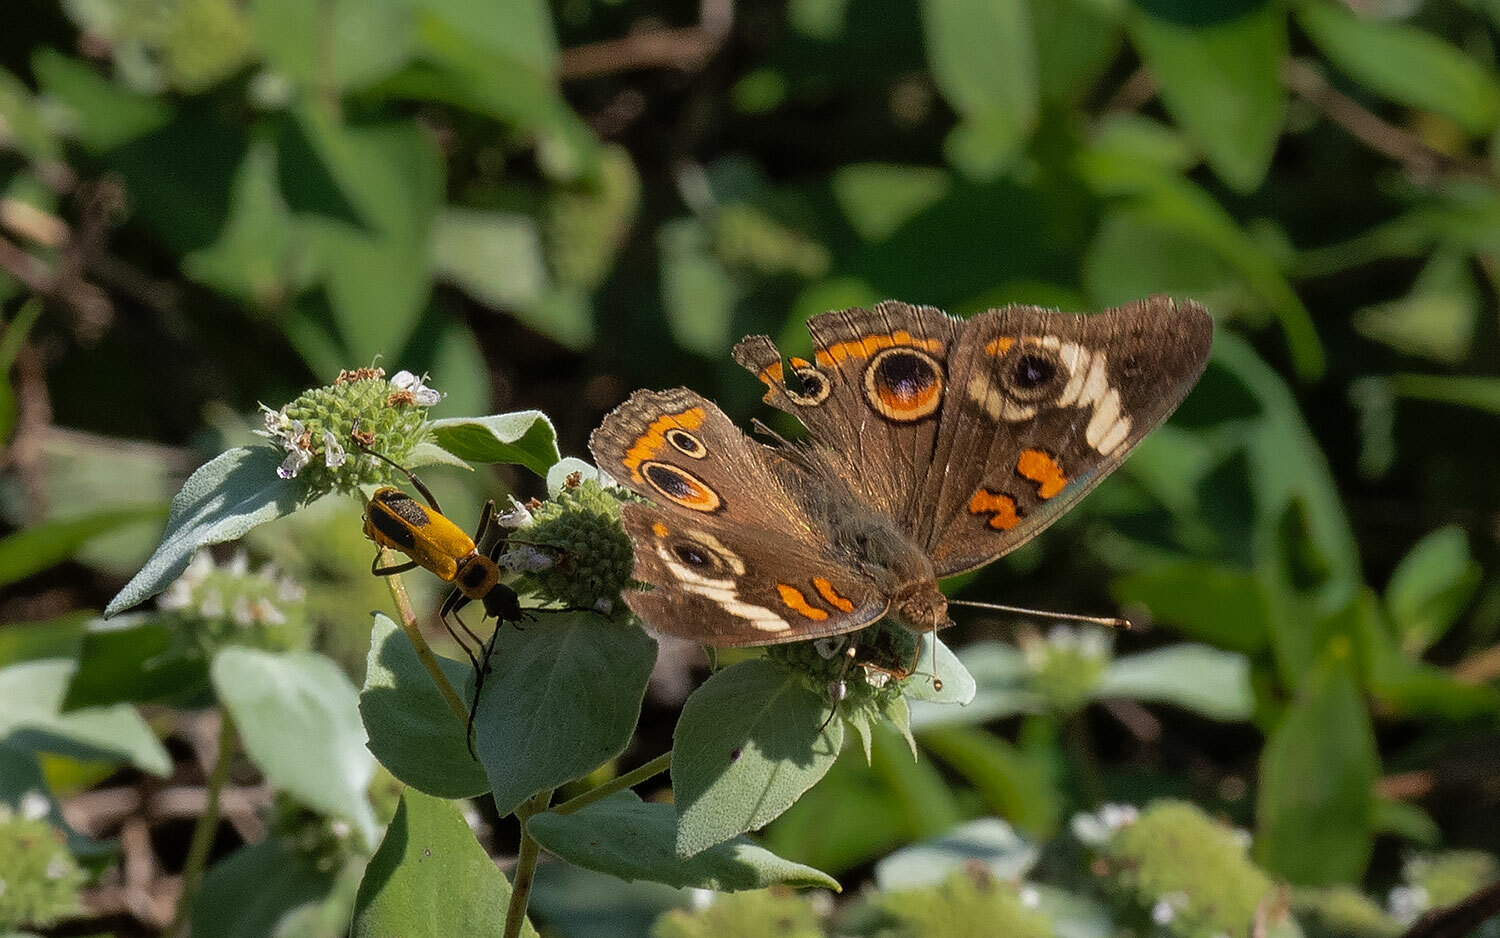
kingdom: Animalia
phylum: Arthropoda
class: Insecta
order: Lepidoptera
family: Nymphalidae
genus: Junonia
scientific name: Junonia coenia
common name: Common buckeye
